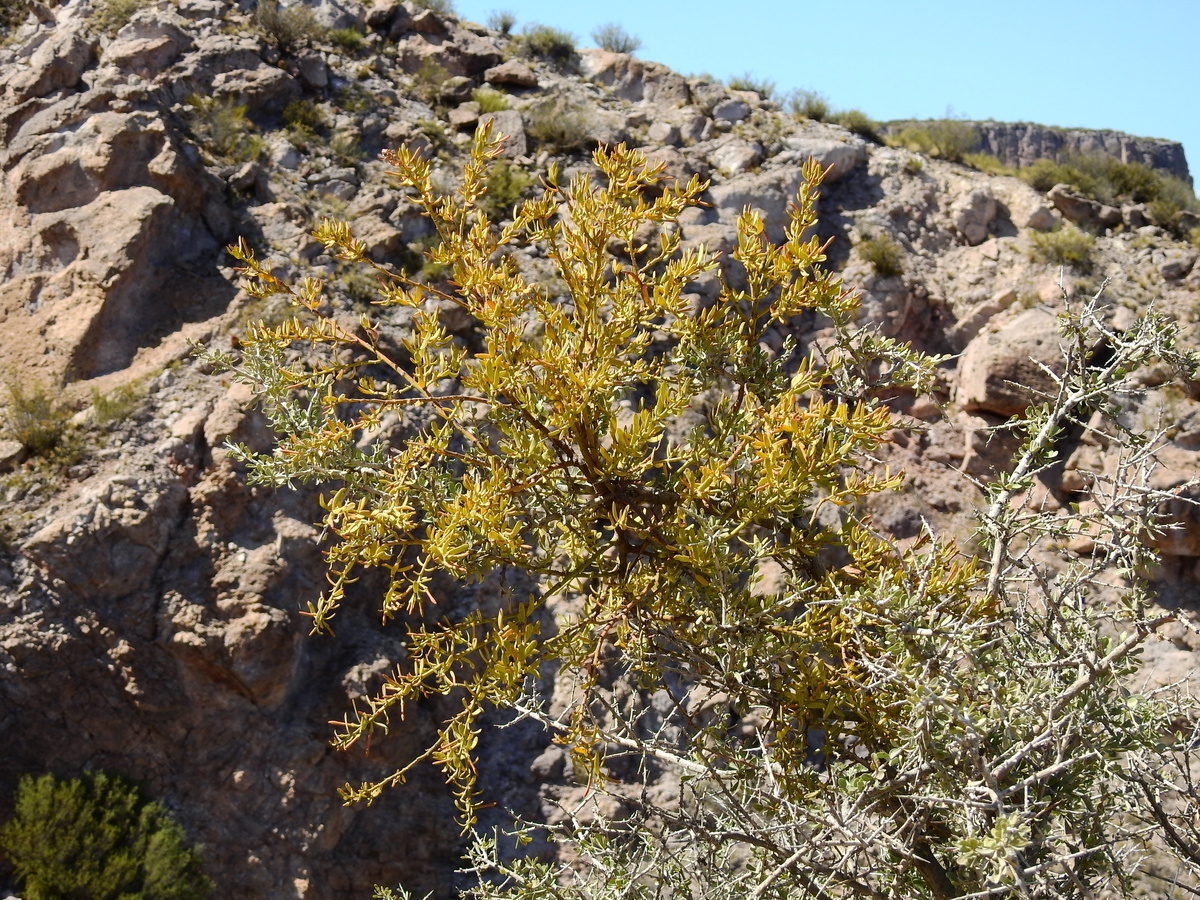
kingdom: Plantae
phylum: Tracheophyta
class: Magnoliopsida
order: Santalales
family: Loranthaceae
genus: Ligaria
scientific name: Ligaria cuneifolia
